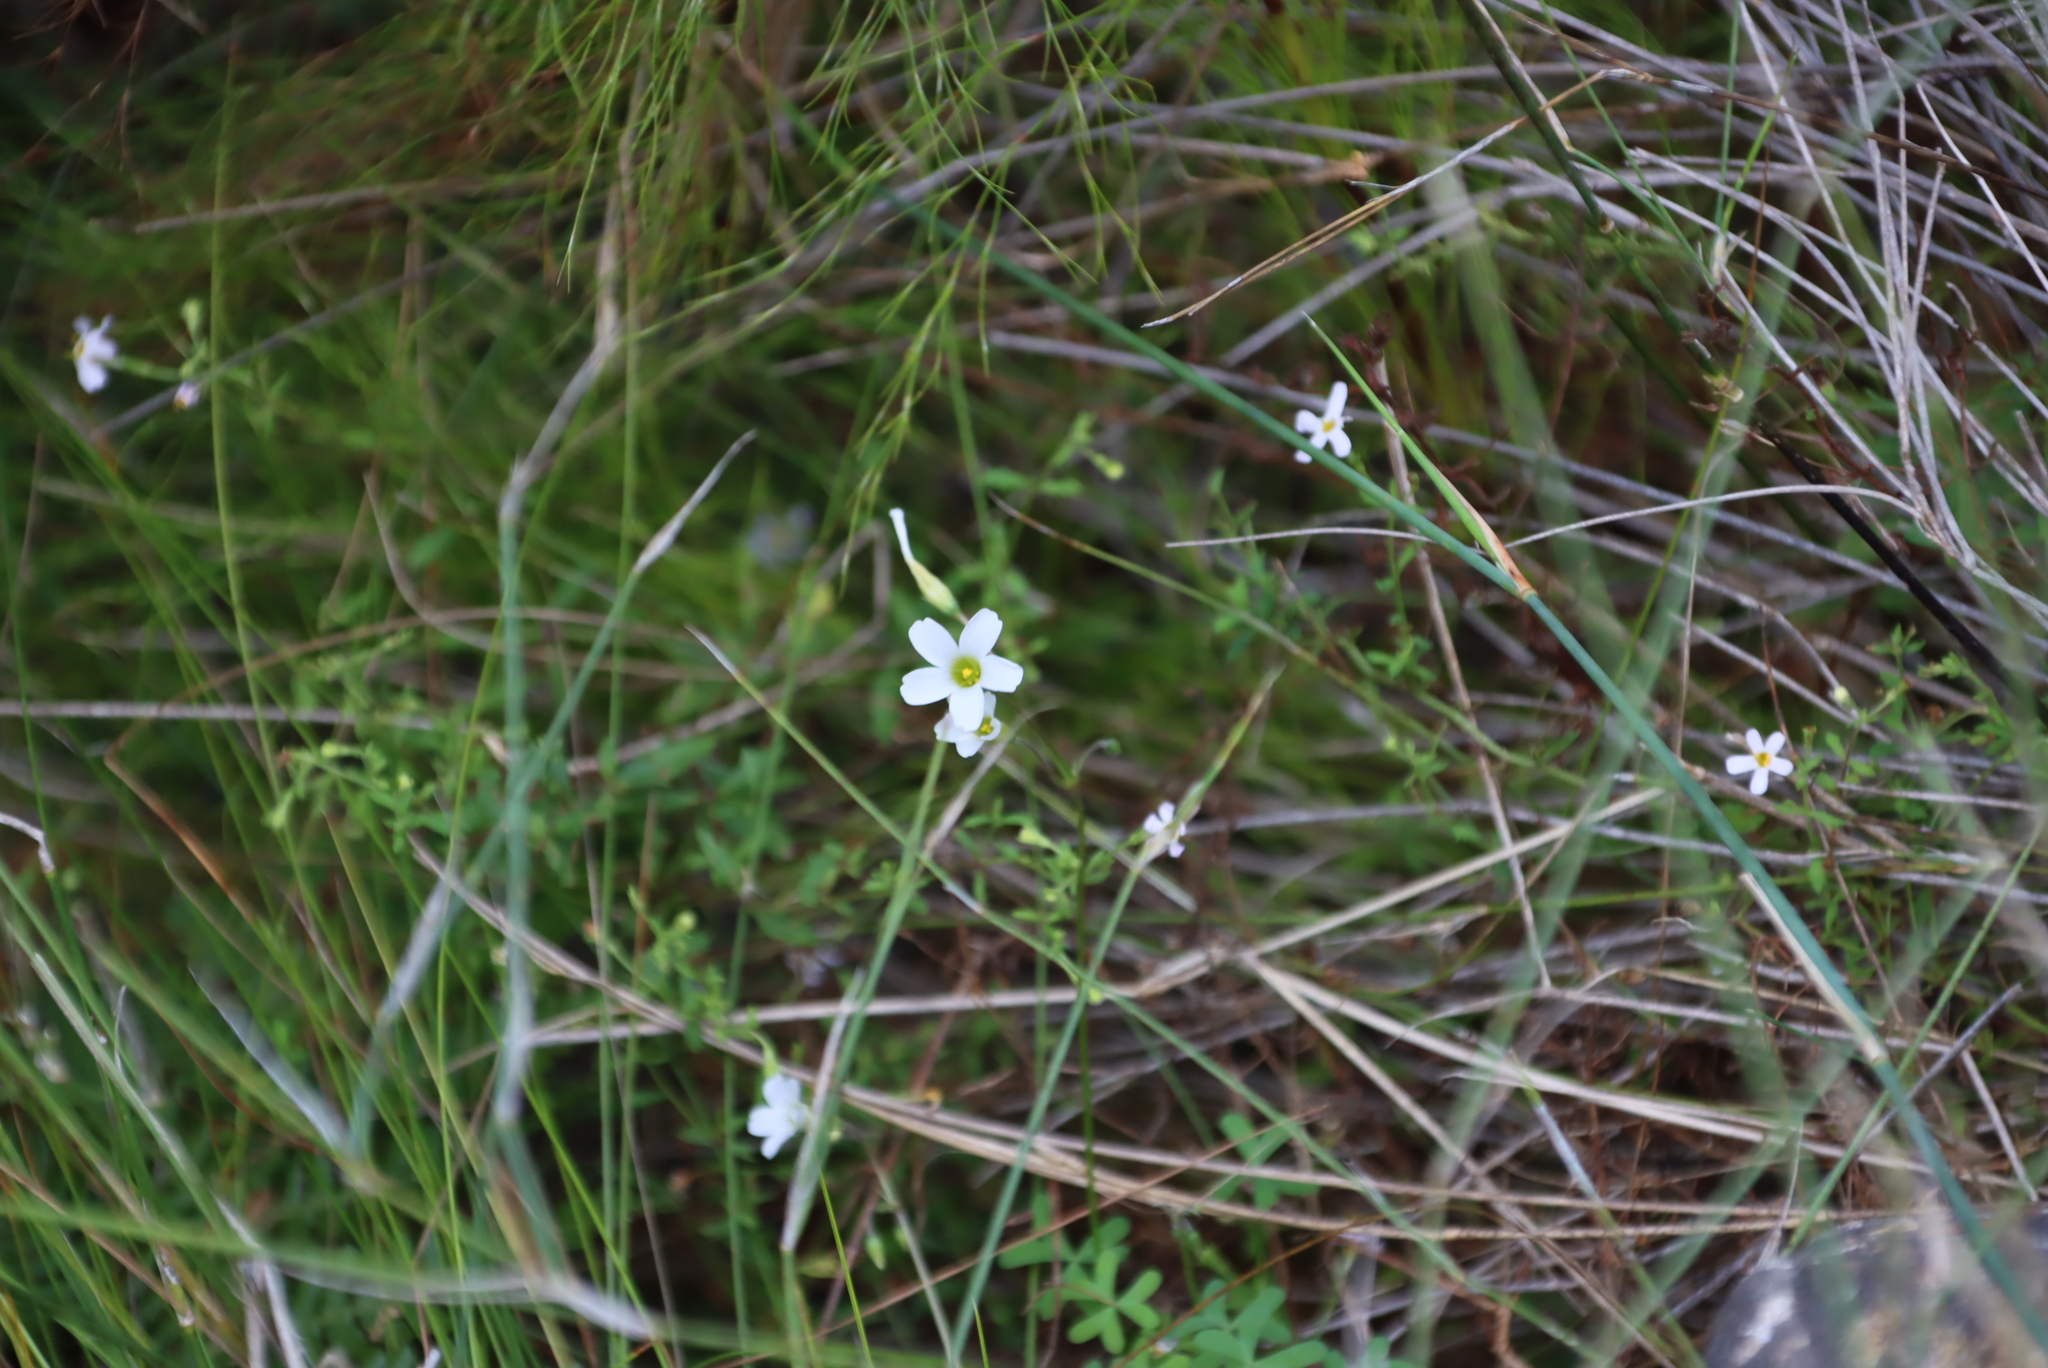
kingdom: Plantae
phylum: Tracheophyta
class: Magnoliopsida
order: Oxalidales
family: Oxalidaceae
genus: Oxalis
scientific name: Oxalis stellata
